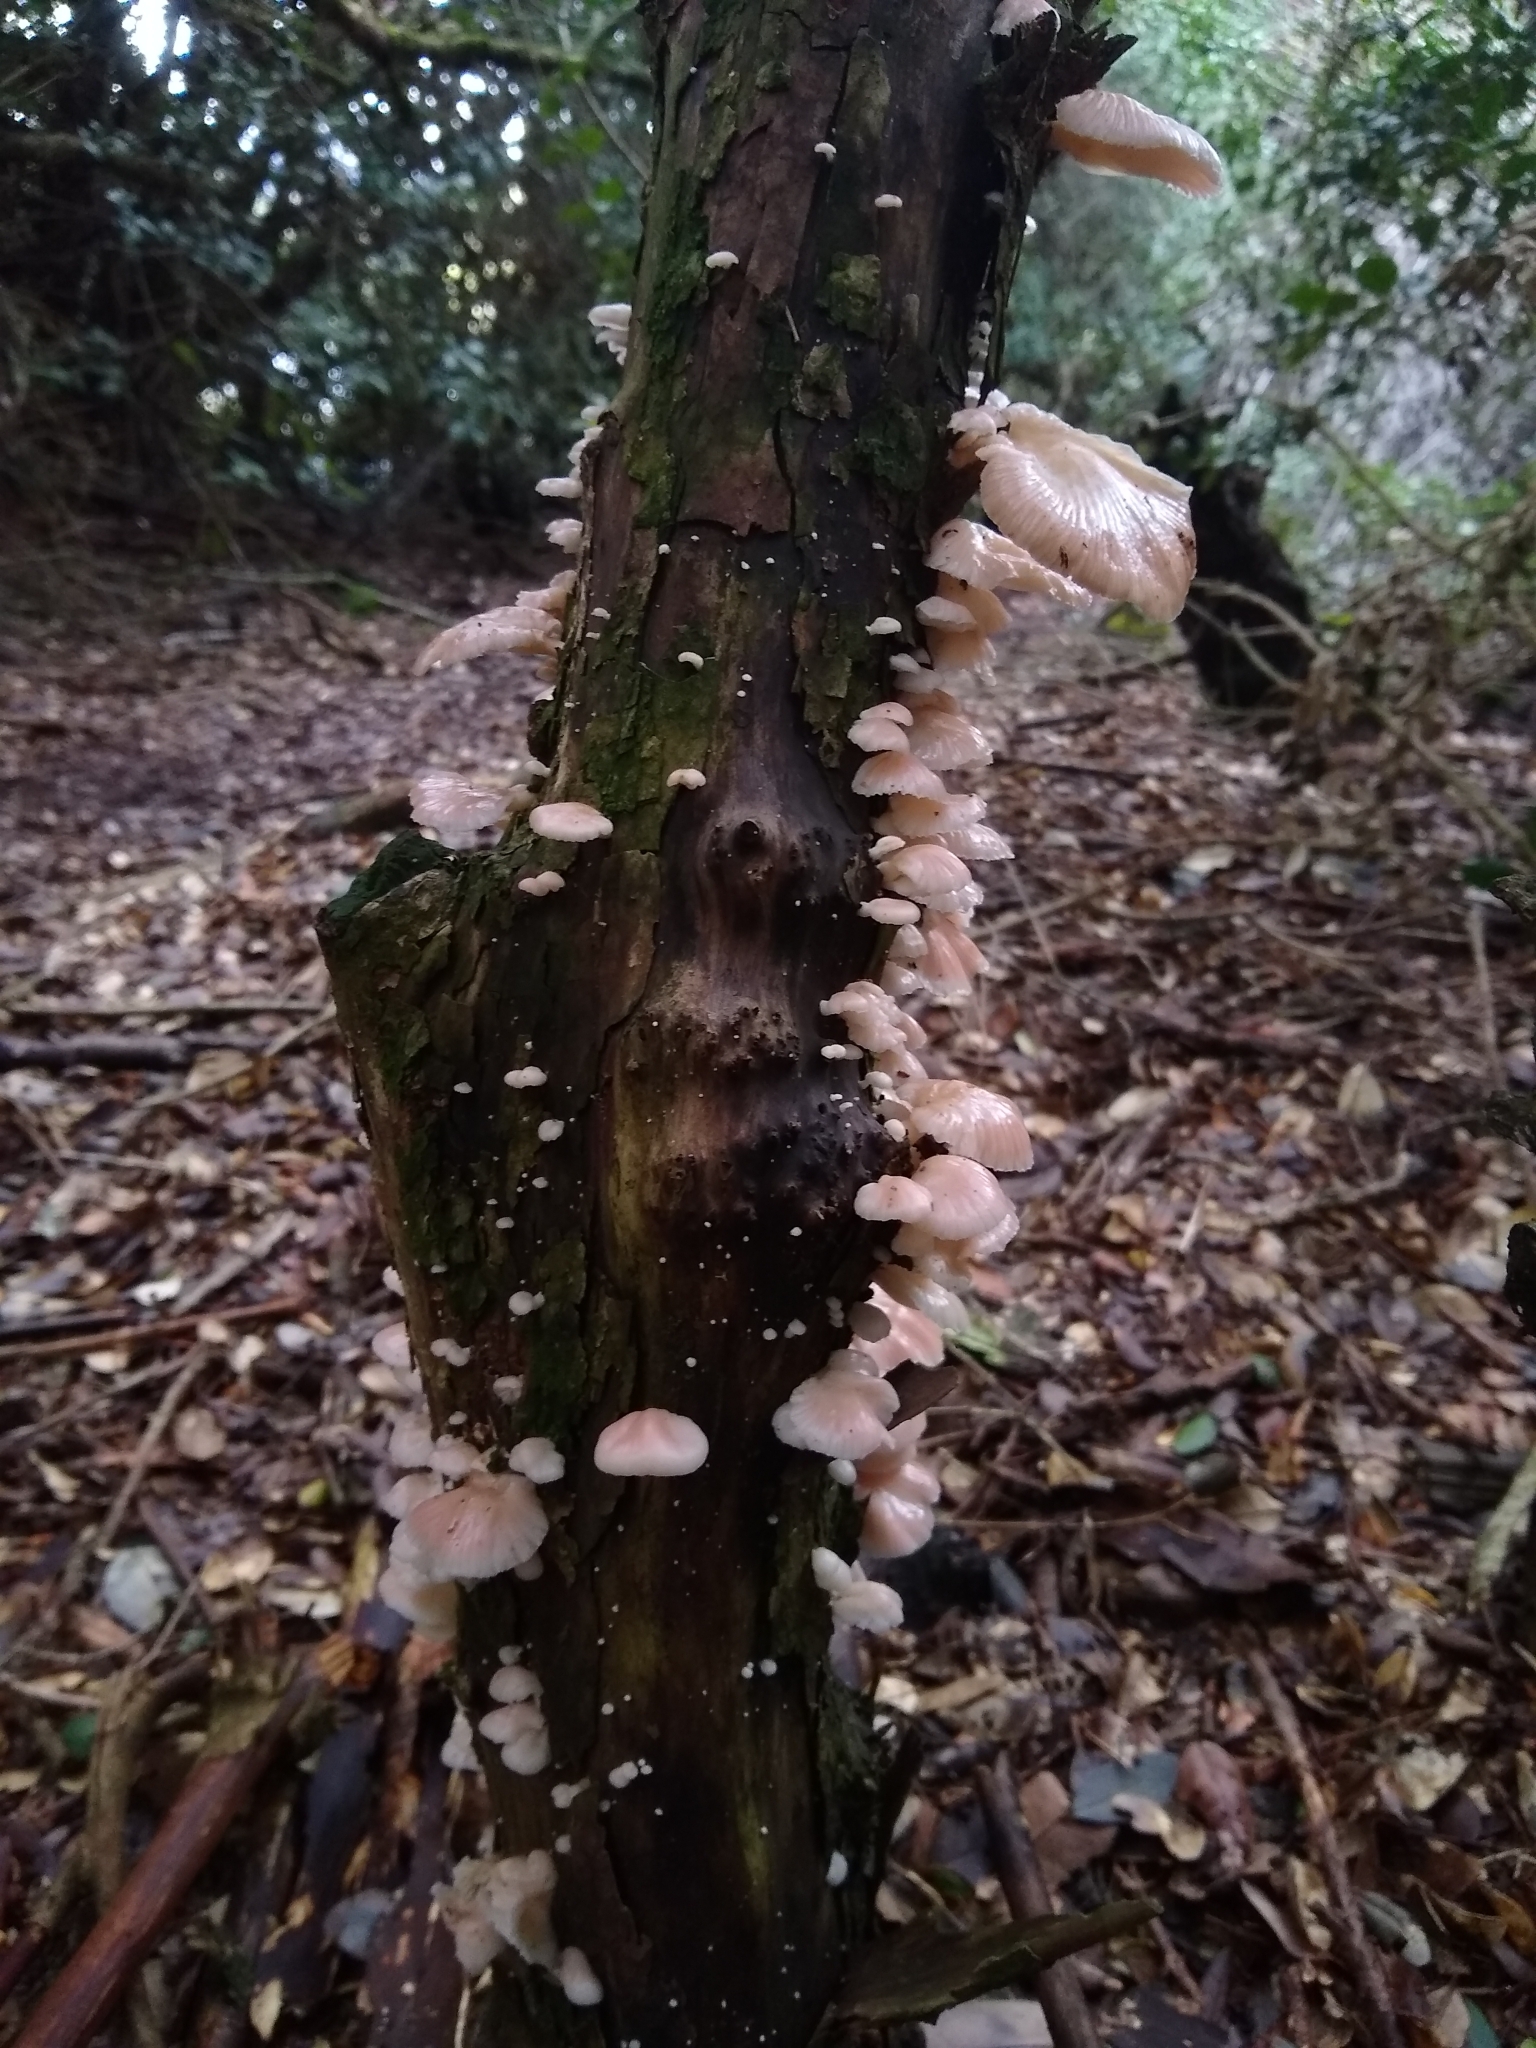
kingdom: Fungi
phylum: Basidiomycota
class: Agaricomycetes
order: Agaricales
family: Mycenaceae
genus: Panellus
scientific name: Panellus longinquus
